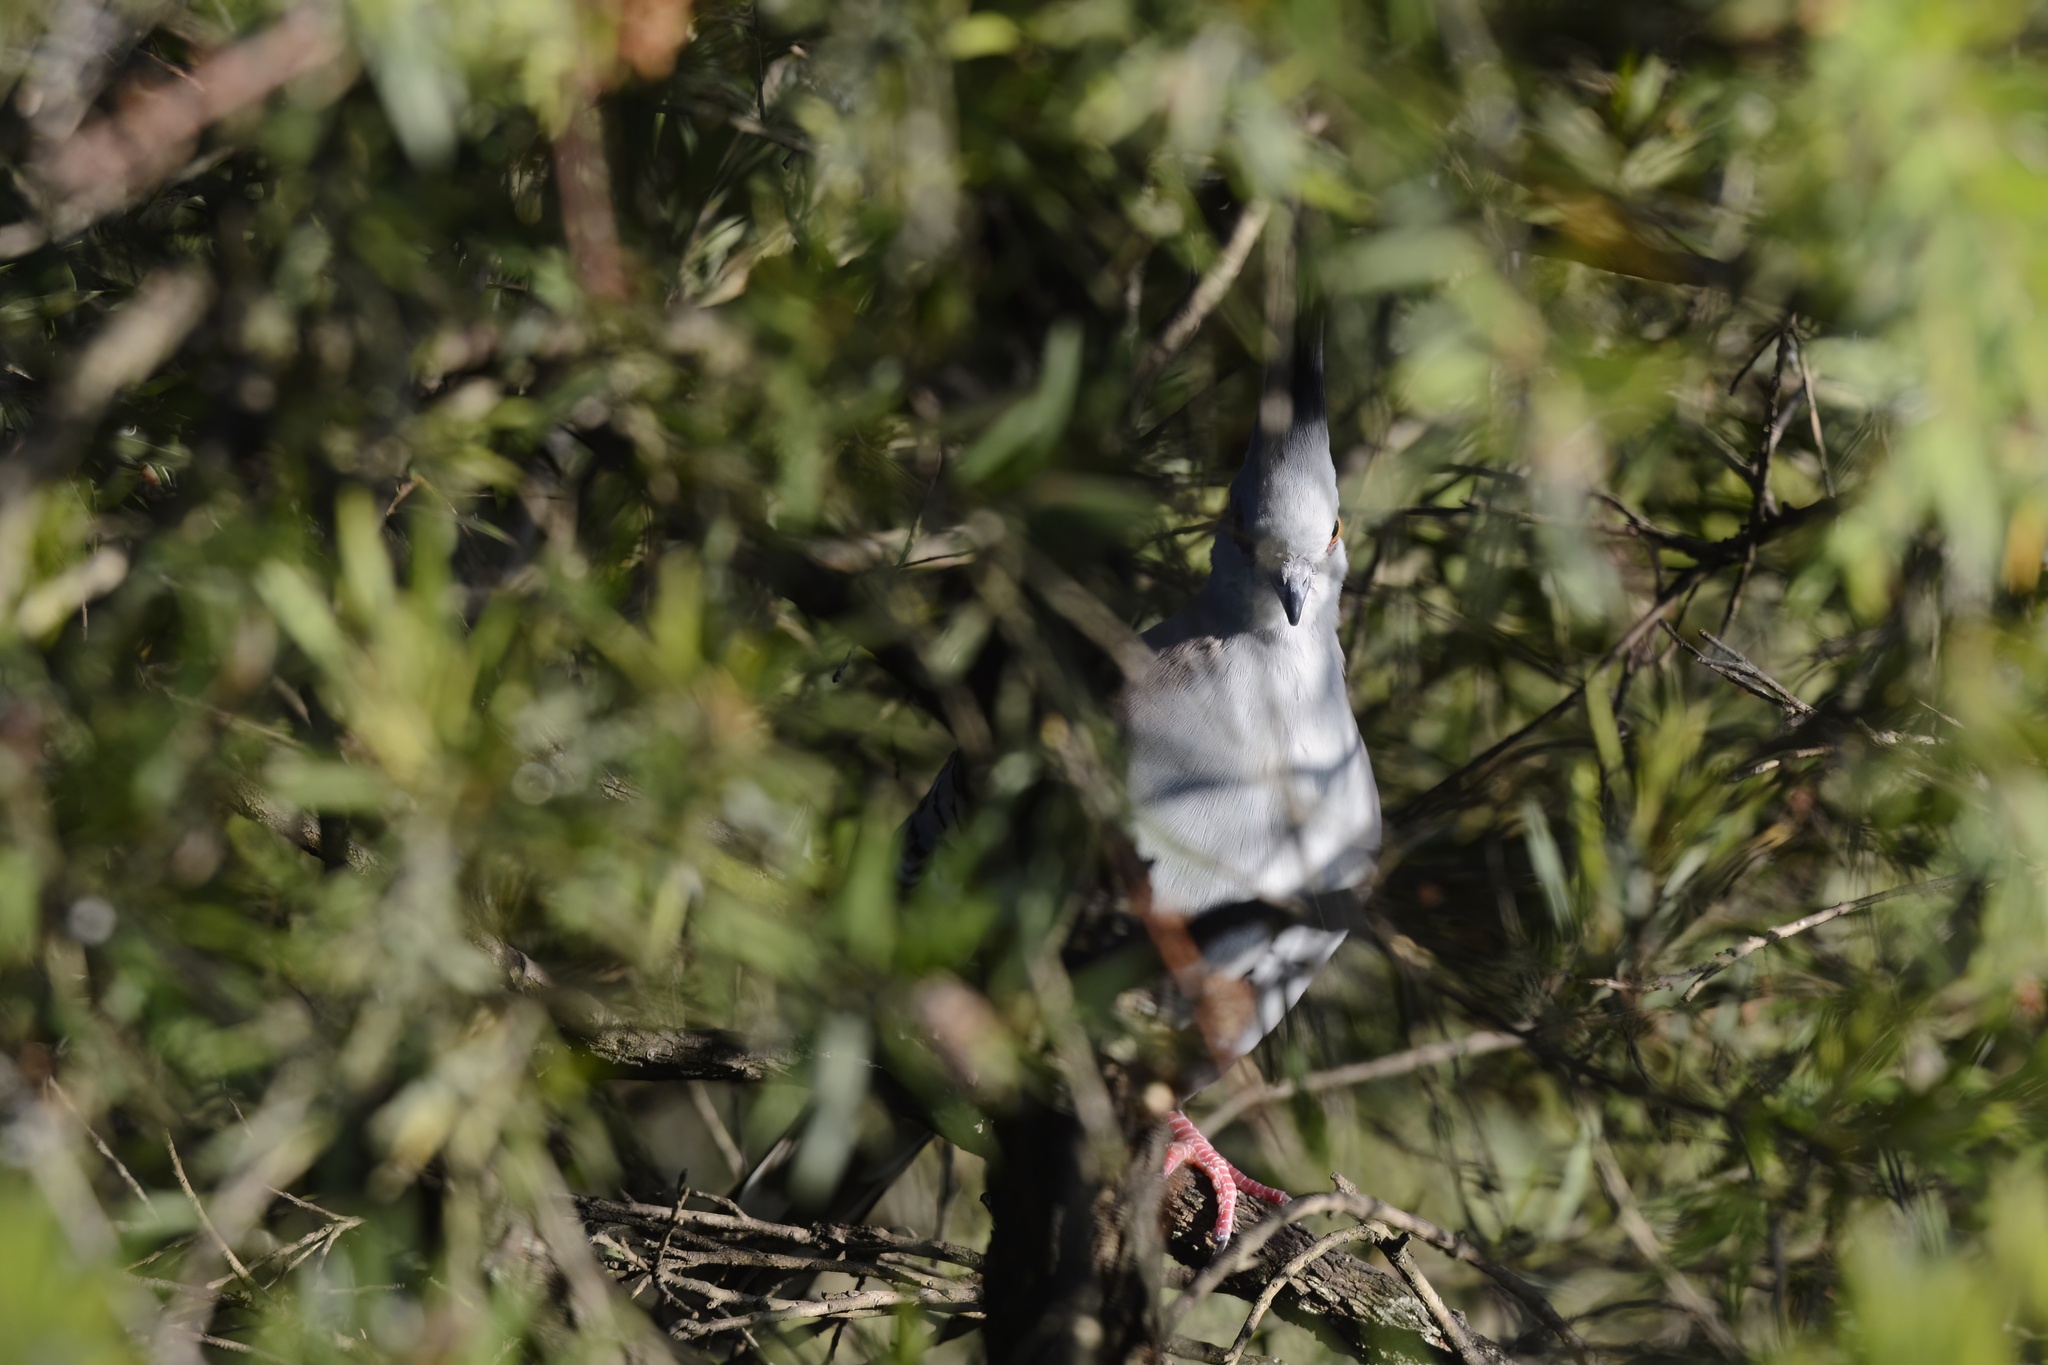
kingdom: Animalia
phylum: Chordata
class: Aves
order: Columbiformes
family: Columbidae
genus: Ocyphaps
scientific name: Ocyphaps lophotes
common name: Crested pigeon
